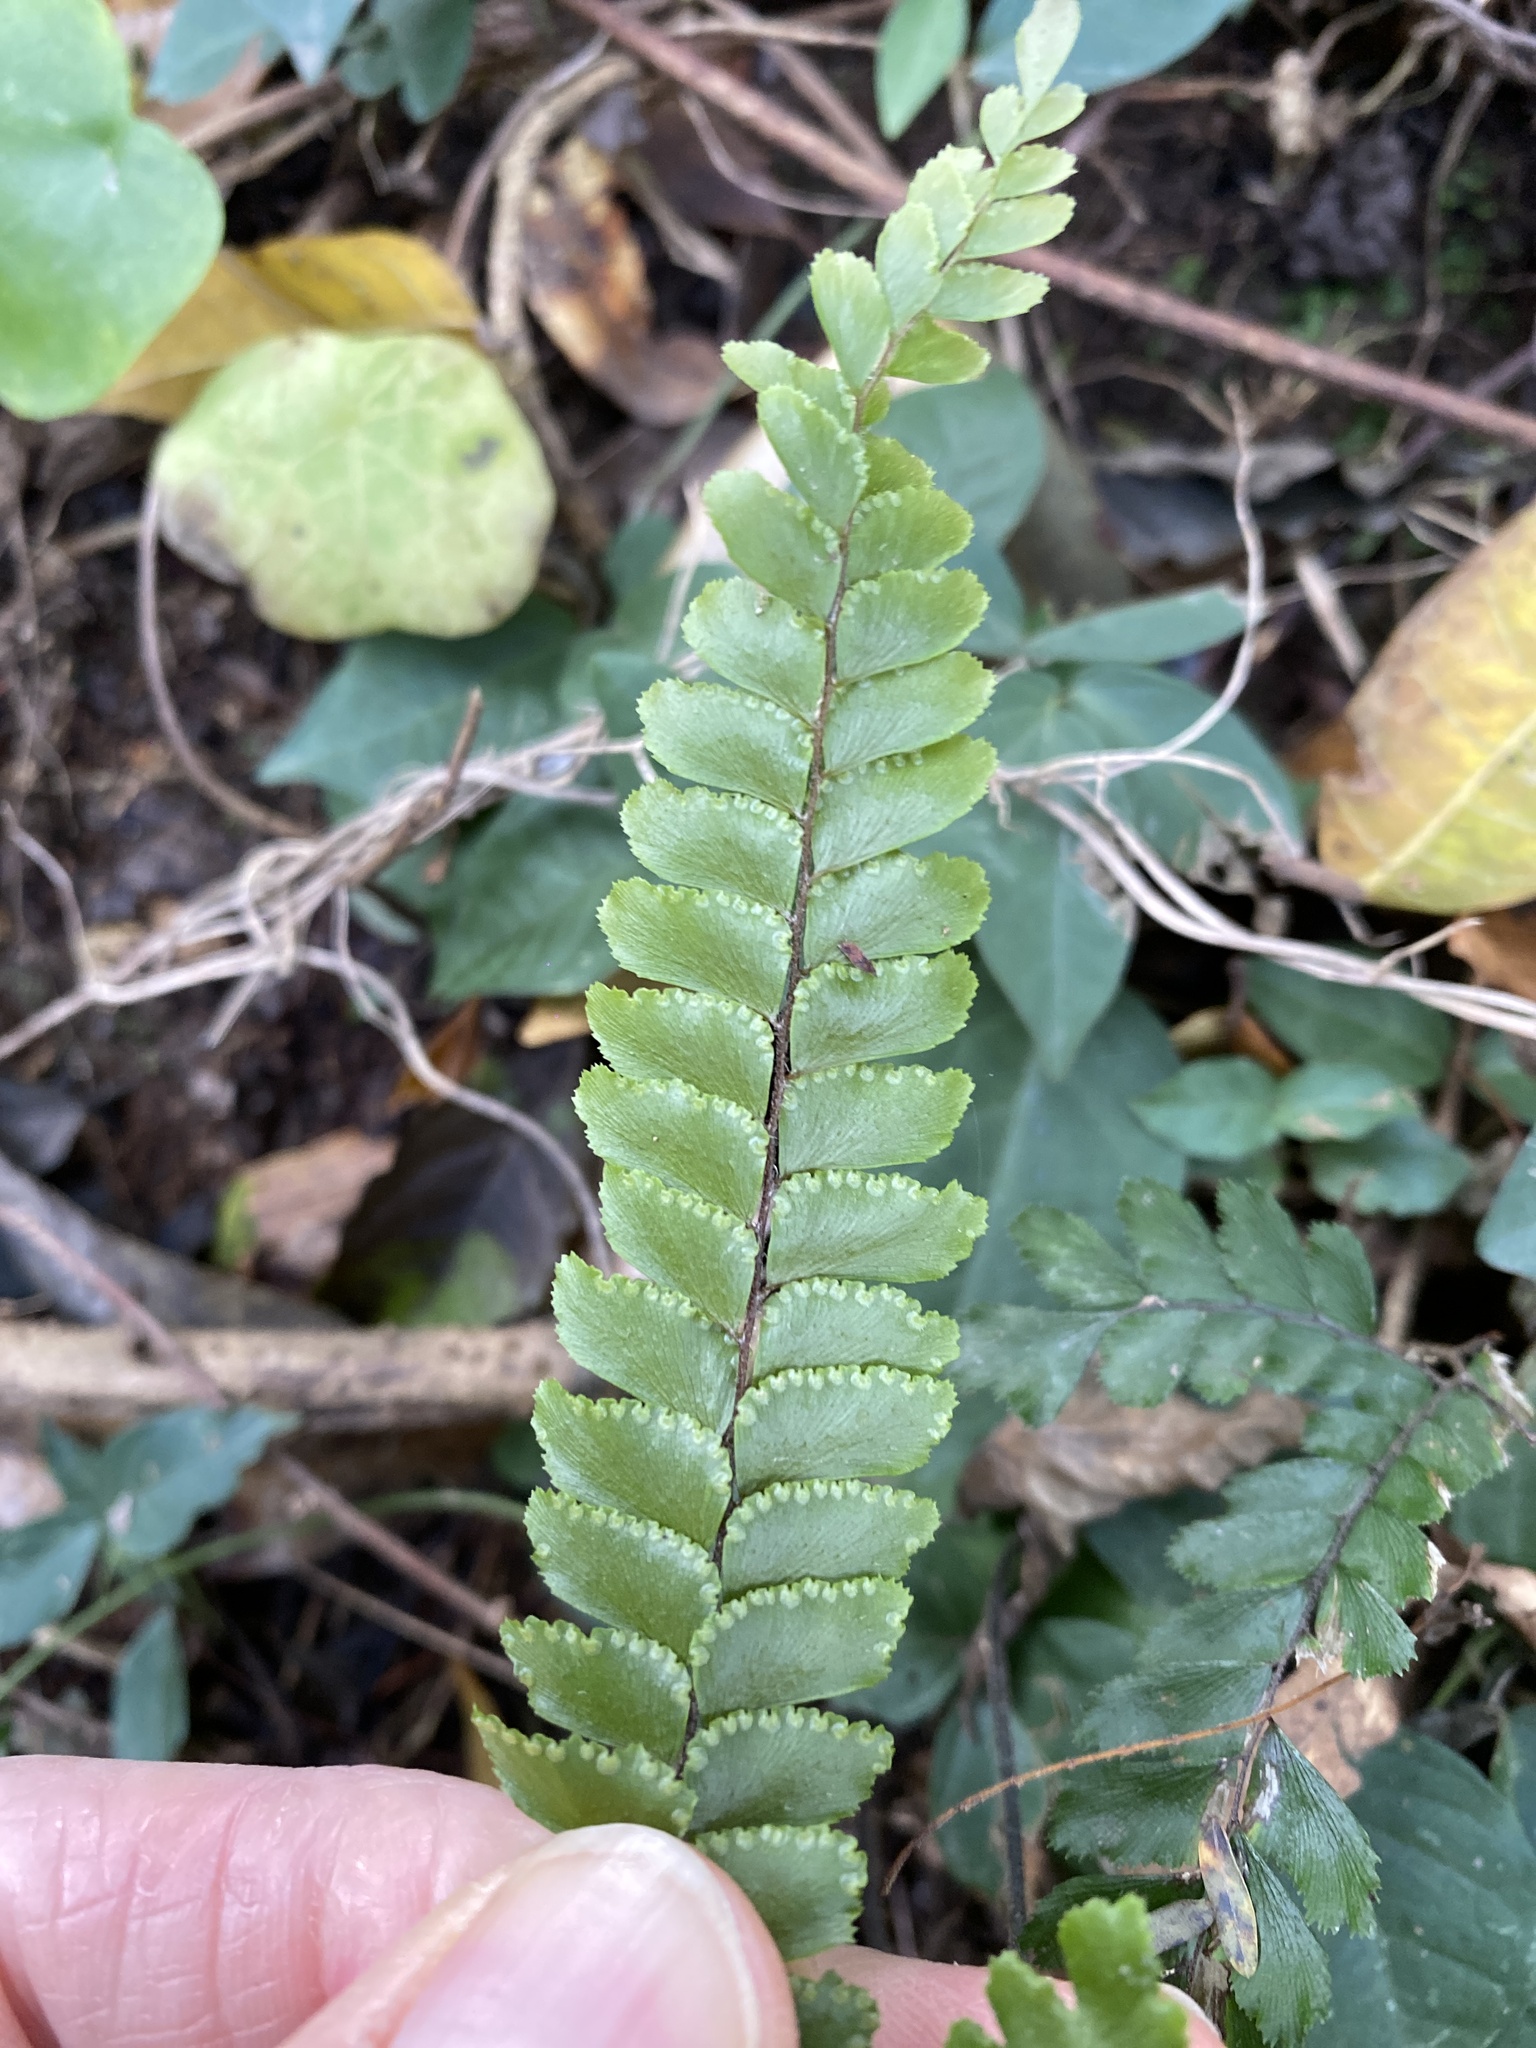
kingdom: Plantae
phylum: Tracheophyta
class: Polypodiopsida
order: Polypodiales
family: Pteridaceae
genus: Adiantum
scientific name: Adiantum hispidulum
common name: Rough maidenhair
